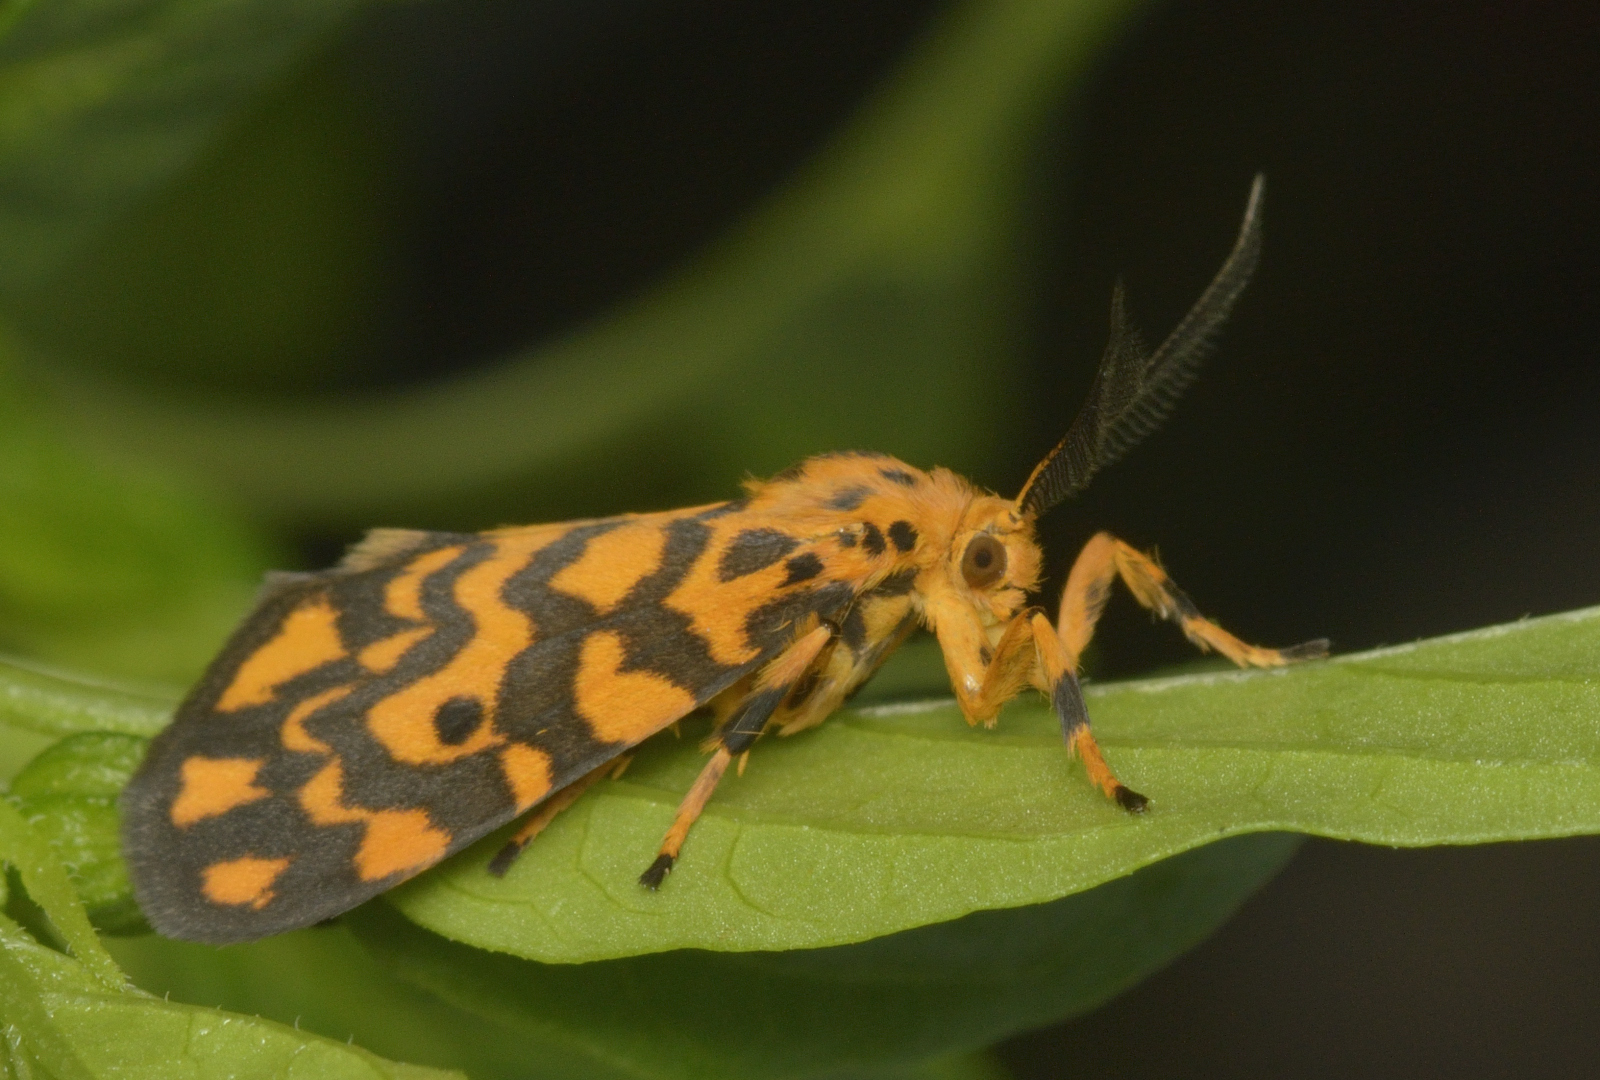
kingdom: Animalia
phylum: Arthropoda
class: Insecta
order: Lepidoptera
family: Erebidae
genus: Nepita
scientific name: Nepita conferta
